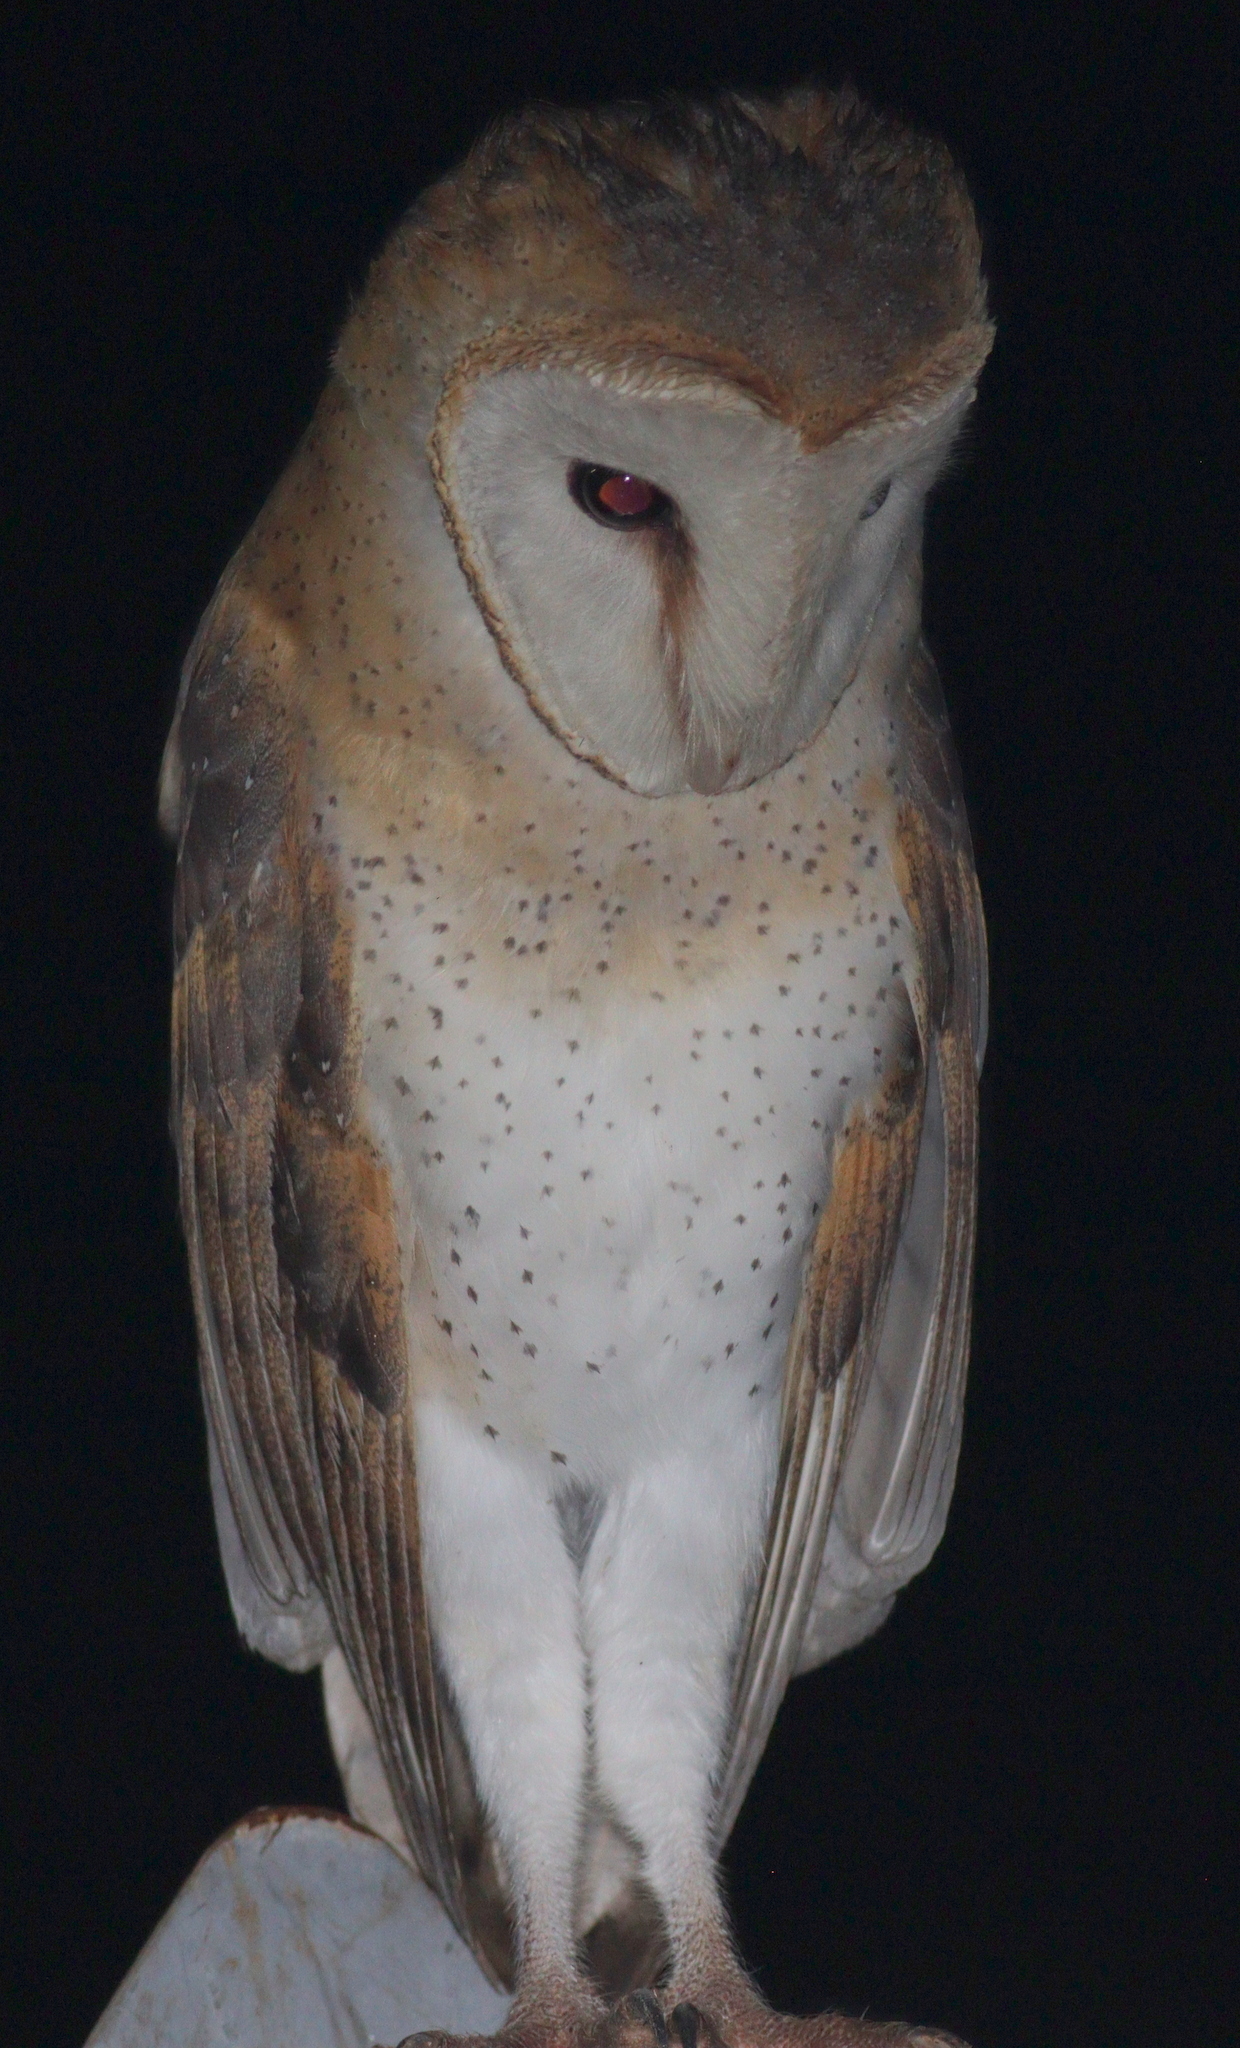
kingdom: Animalia
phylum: Chordata
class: Aves
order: Strigiformes
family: Tytonidae
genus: Tyto
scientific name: Tyto alba
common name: Barn owl
